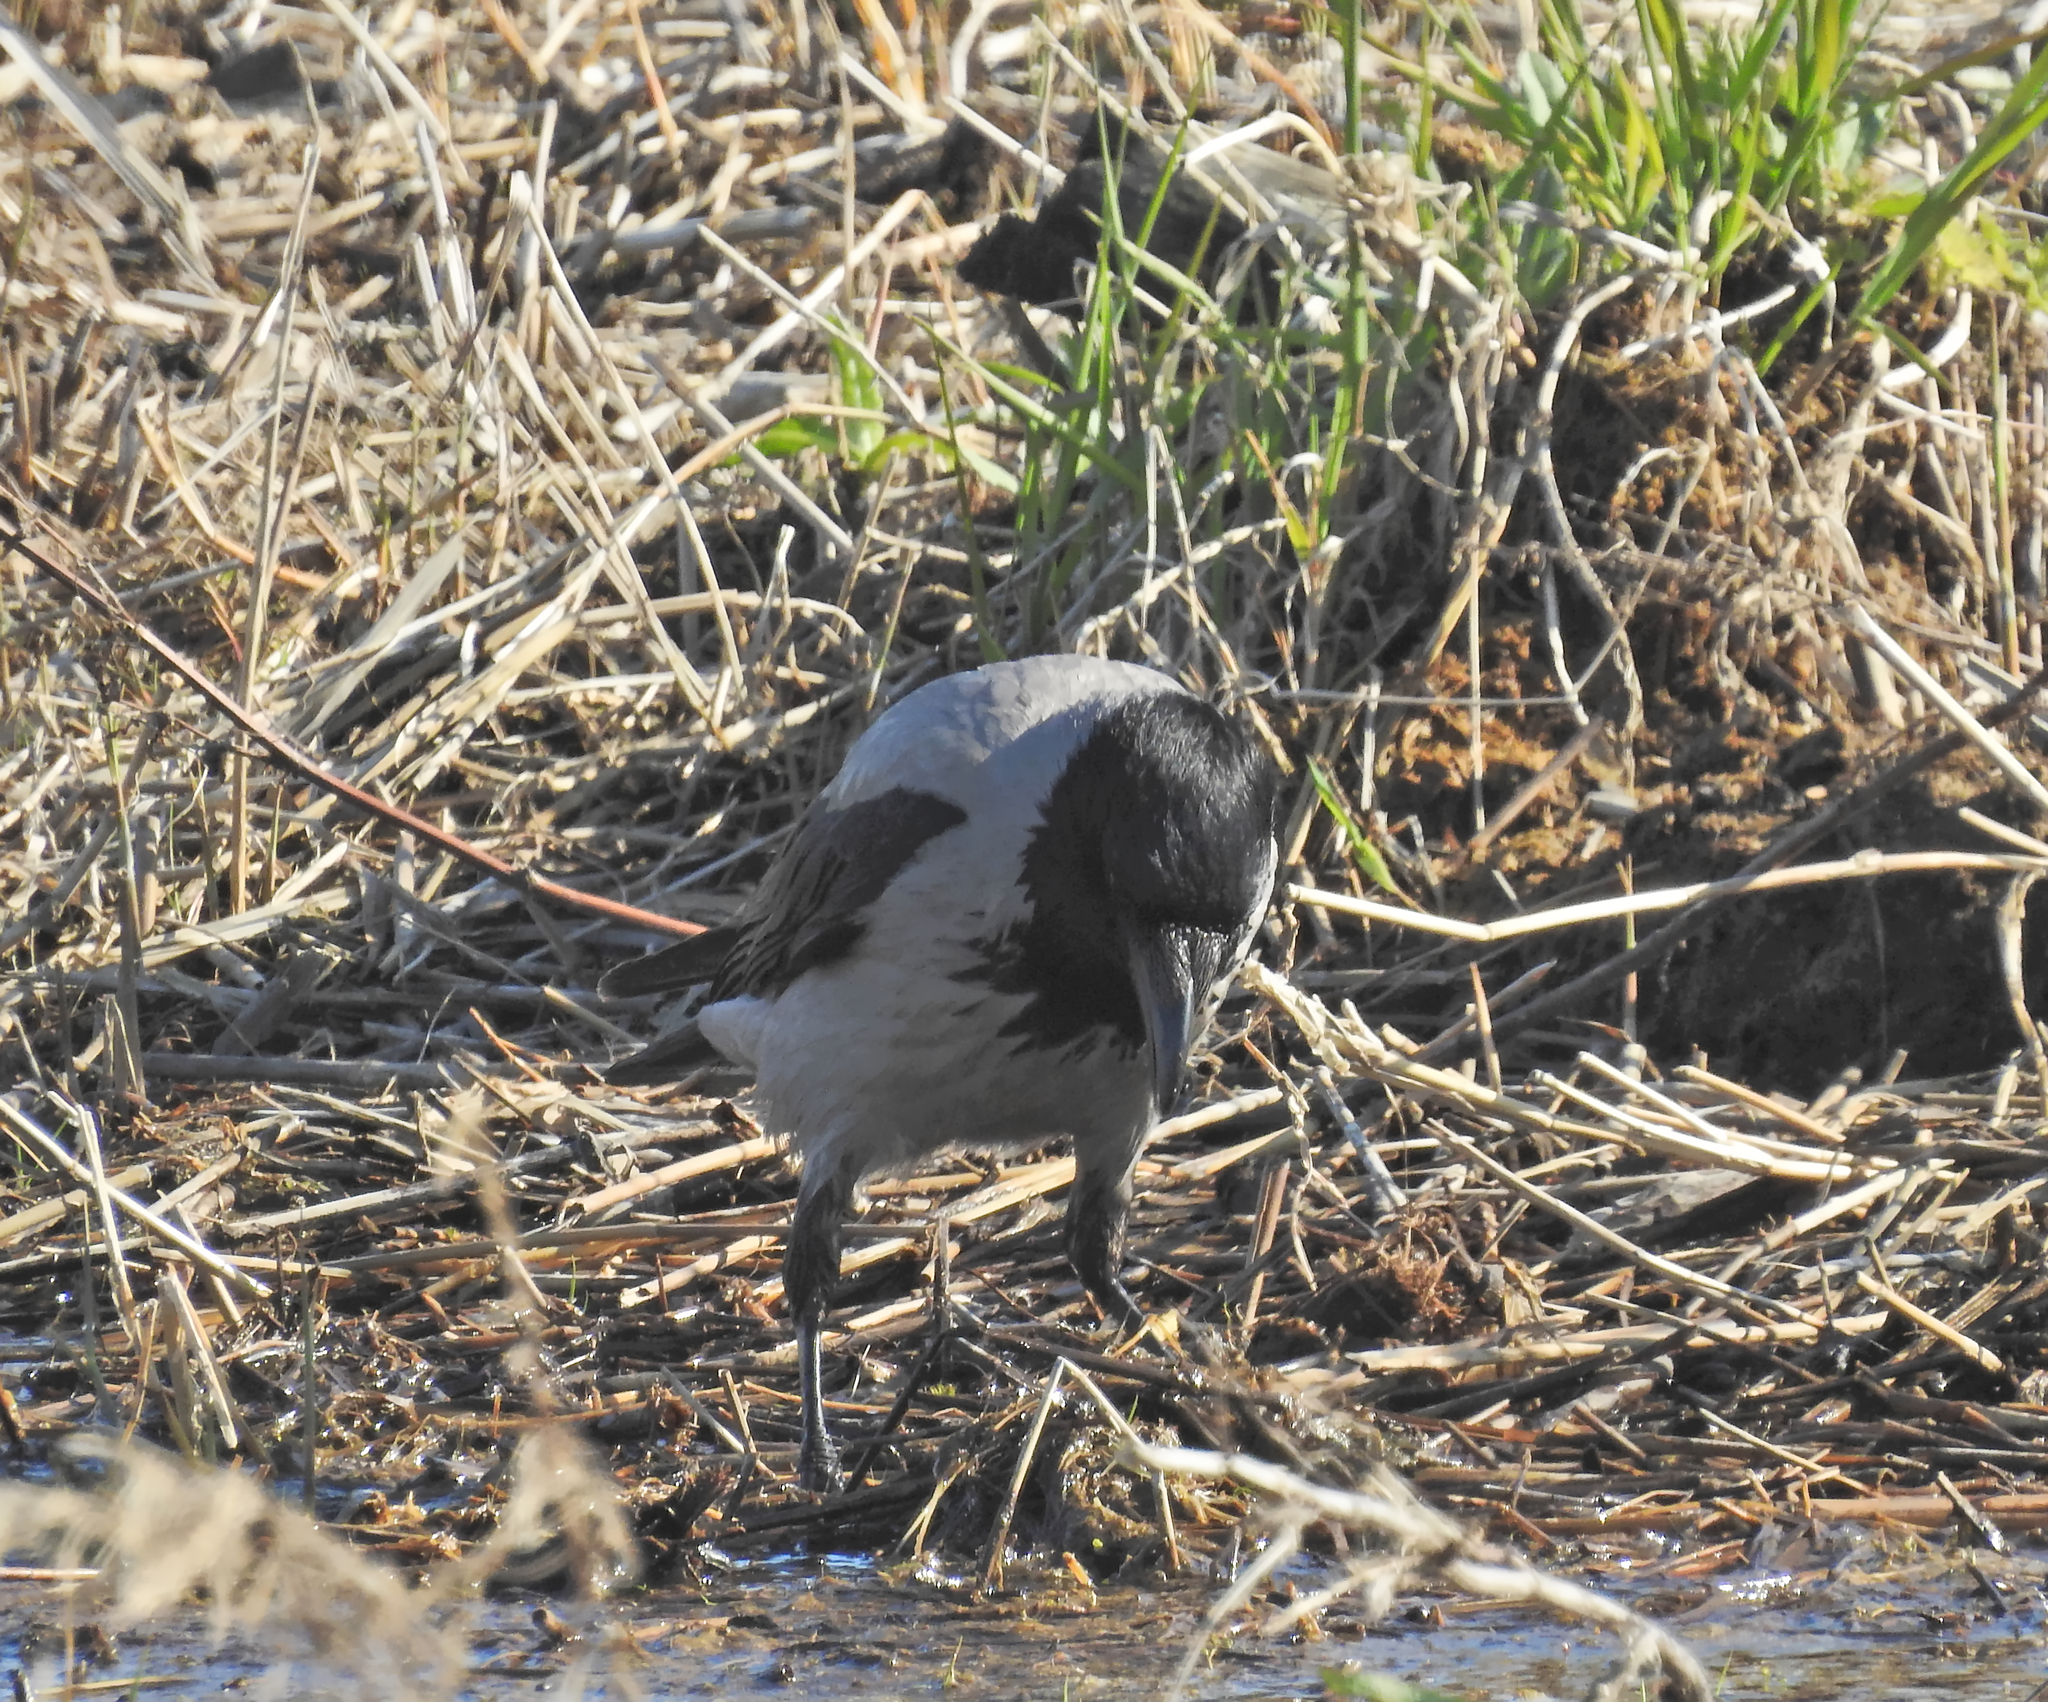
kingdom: Animalia
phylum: Chordata
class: Aves
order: Passeriformes
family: Corvidae
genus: Corvus
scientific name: Corvus cornix
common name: Hooded crow
